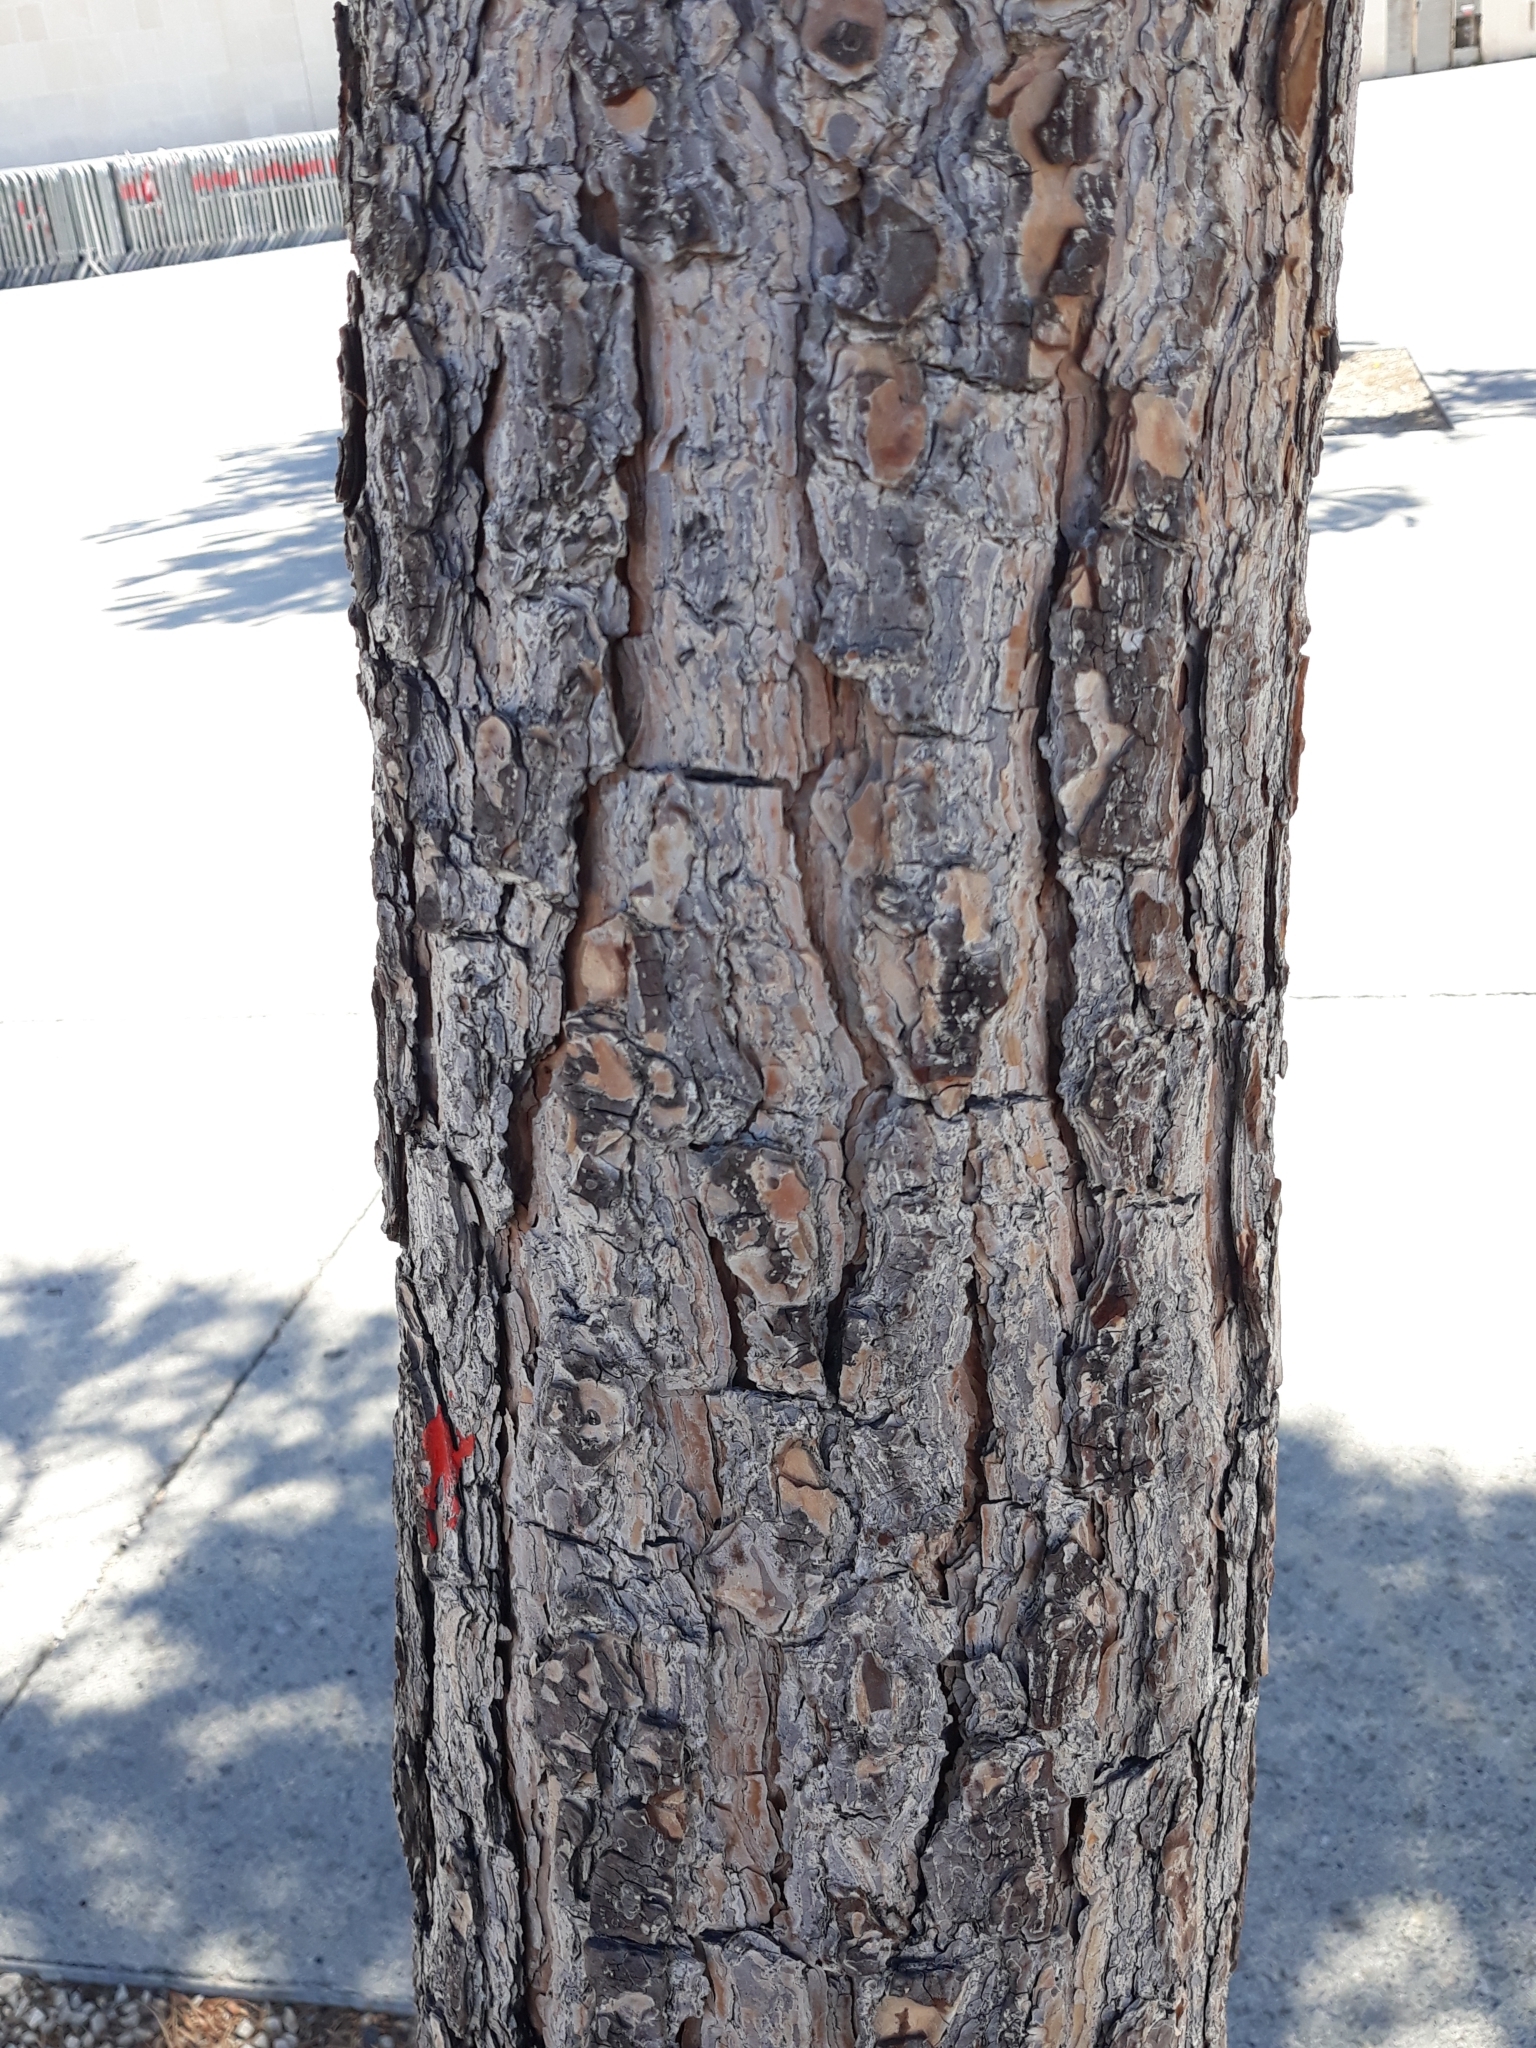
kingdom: Plantae
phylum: Tracheophyta
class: Pinopsida
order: Pinales
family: Pinaceae
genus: Pinus
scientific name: Pinus pinaster
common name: Maritime pine
